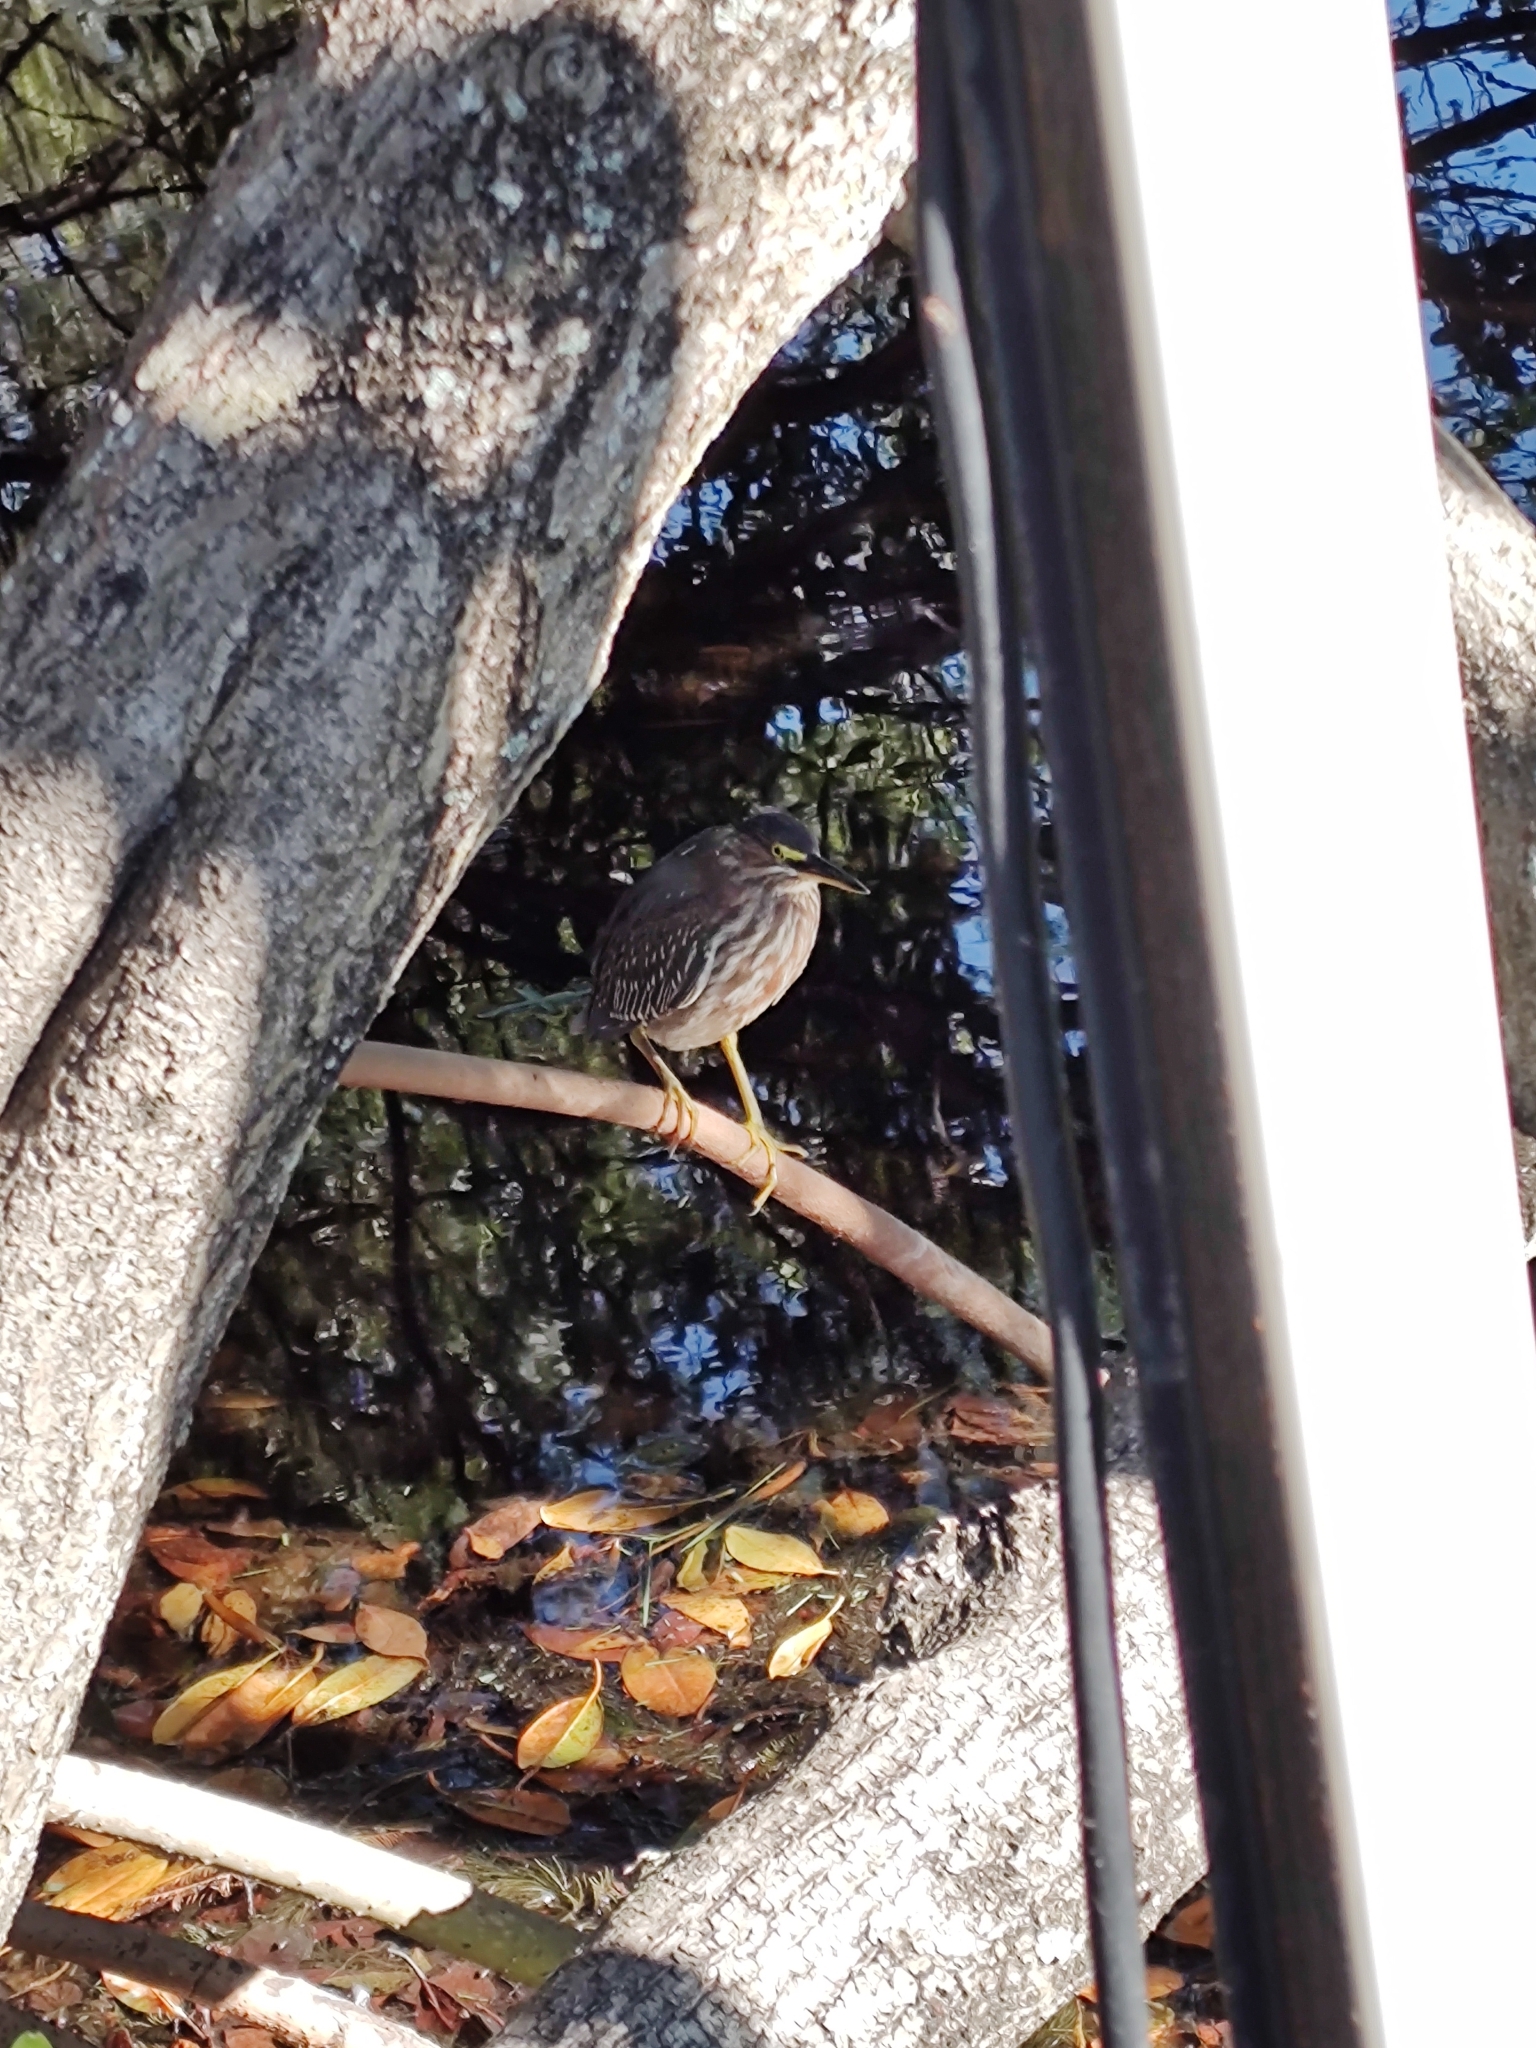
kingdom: Animalia
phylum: Chordata
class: Aves
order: Pelecaniformes
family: Ardeidae
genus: Butorides
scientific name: Butorides virescens
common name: Green heron
